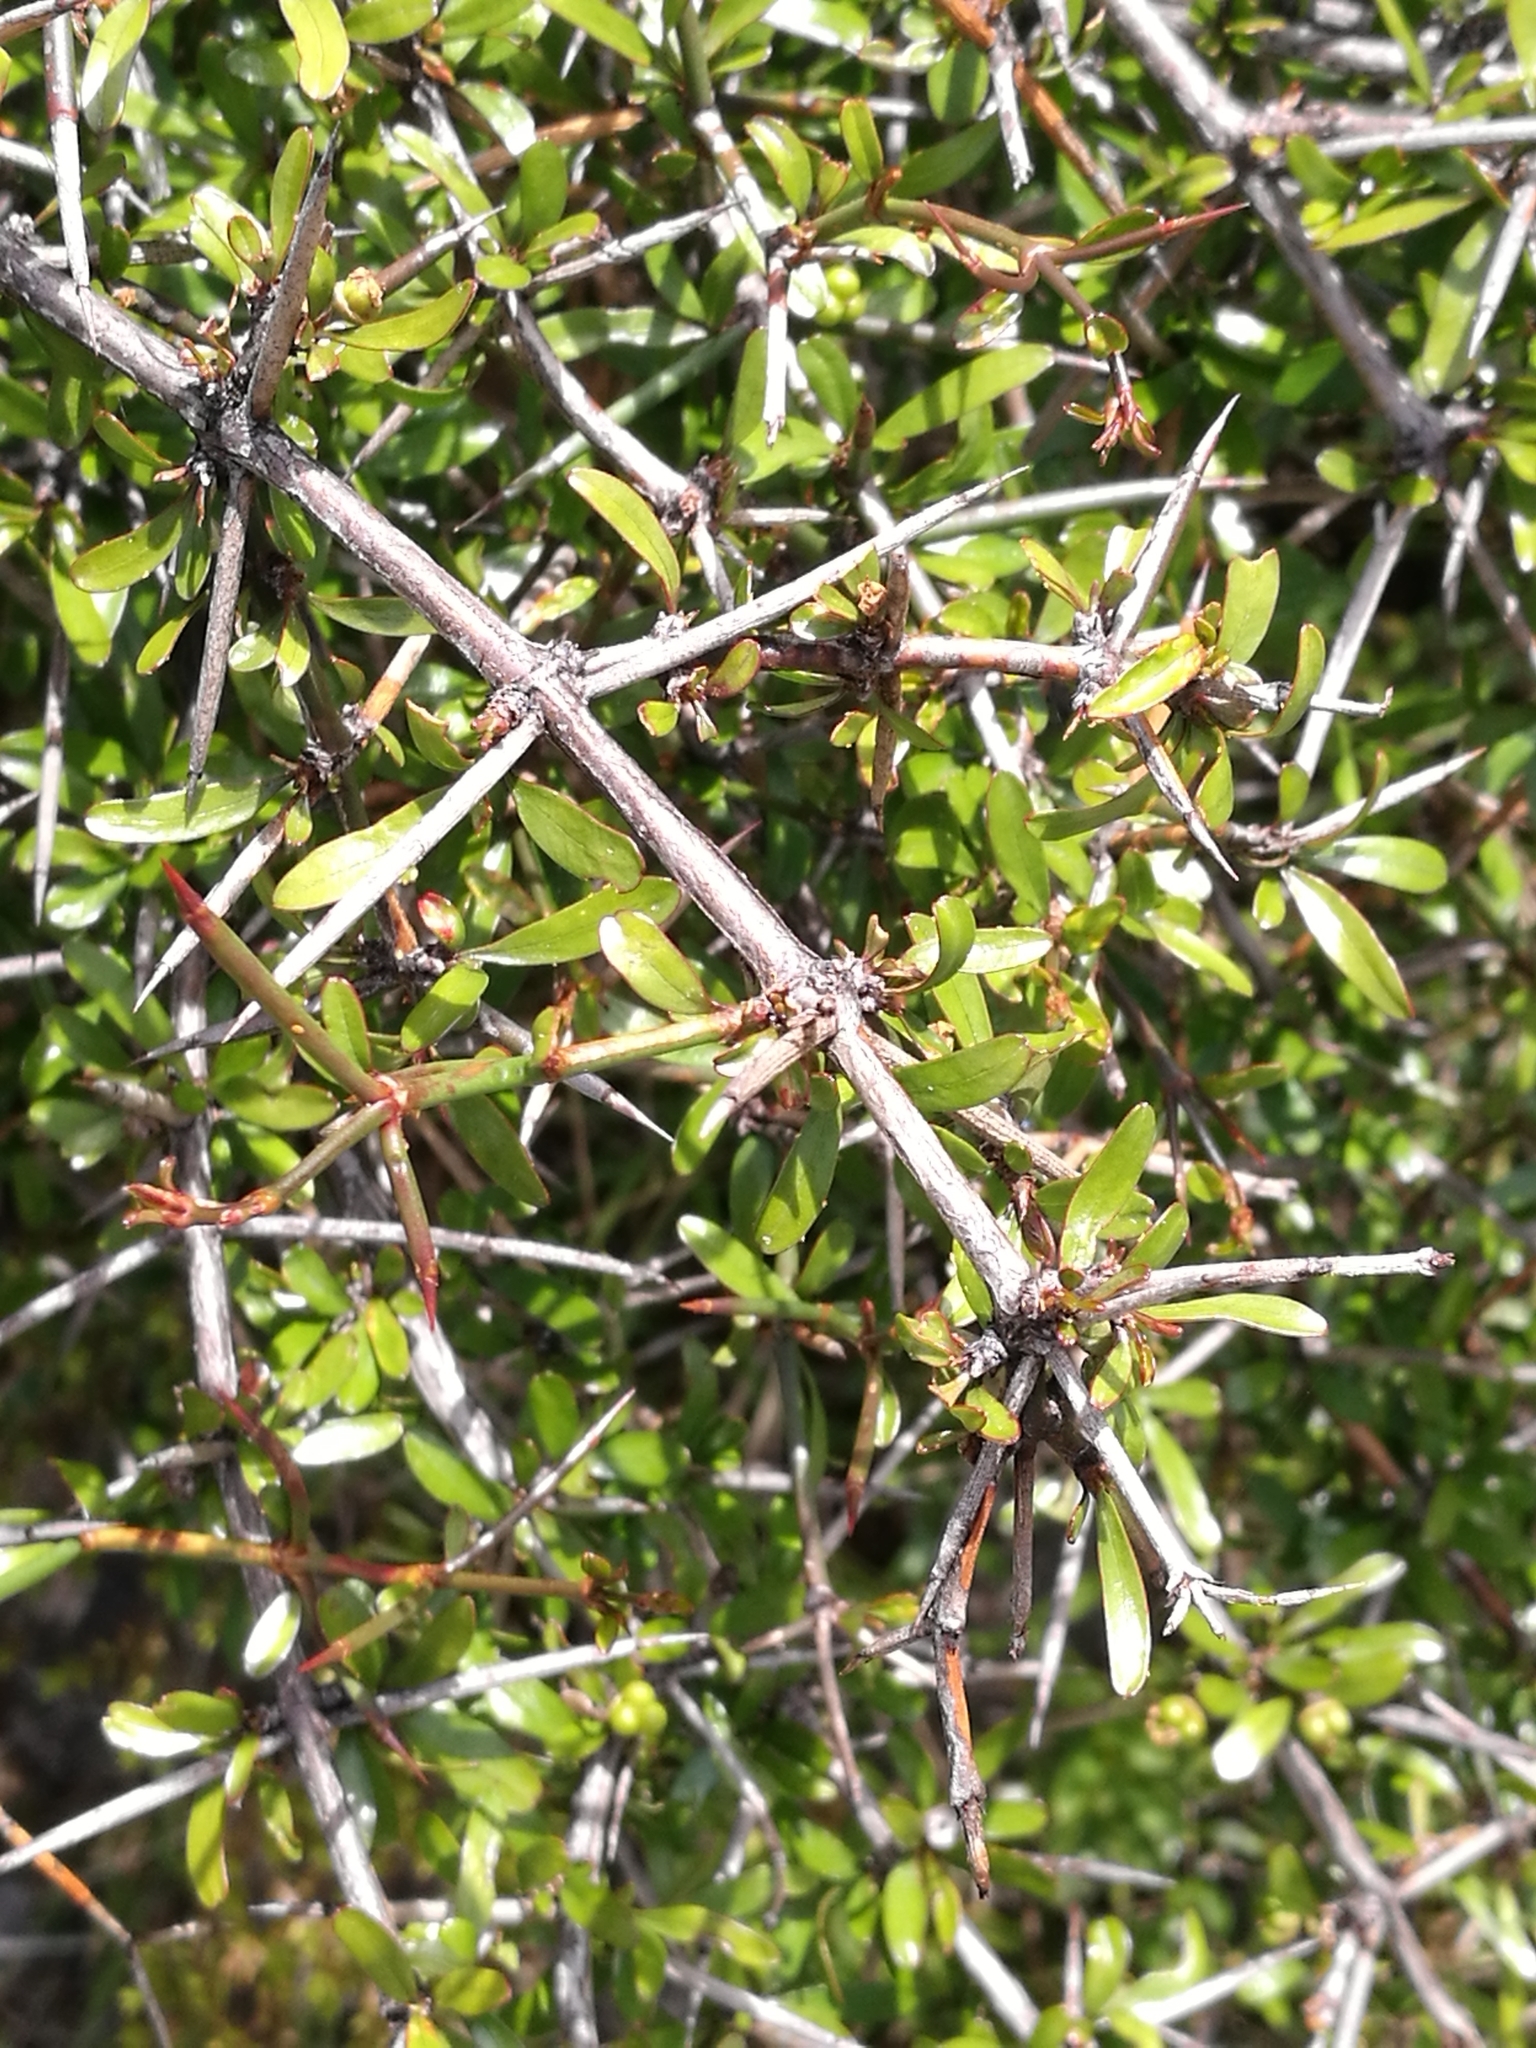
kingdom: Plantae
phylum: Tracheophyta
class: Magnoliopsida
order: Rosales
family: Rhamnaceae
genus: Discaria
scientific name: Discaria toumatou
